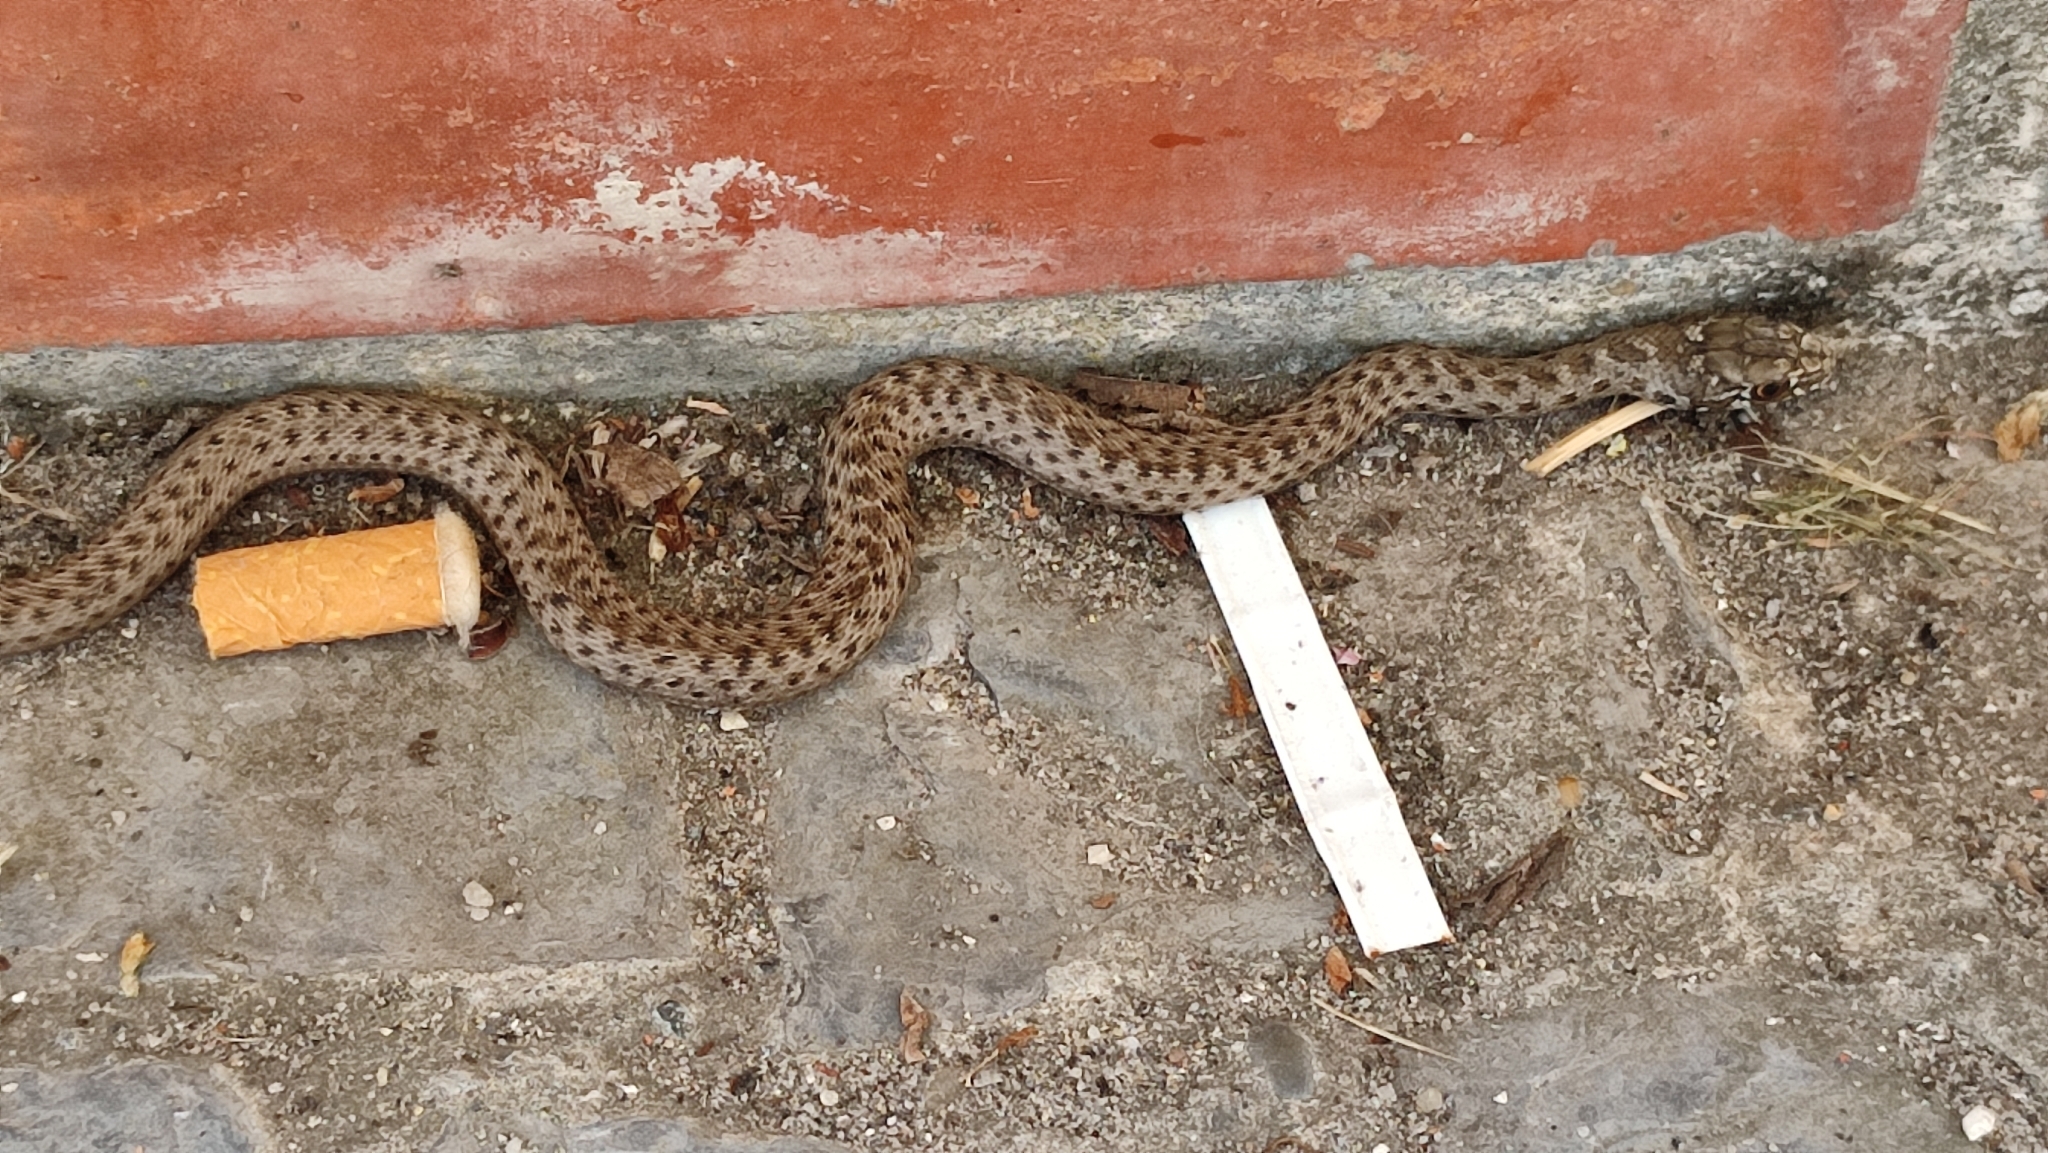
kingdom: Animalia
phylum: Chordata
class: Squamata
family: Psammophiidae
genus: Malpolon
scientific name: Malpolon monspessulanus
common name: Montpellier snake
